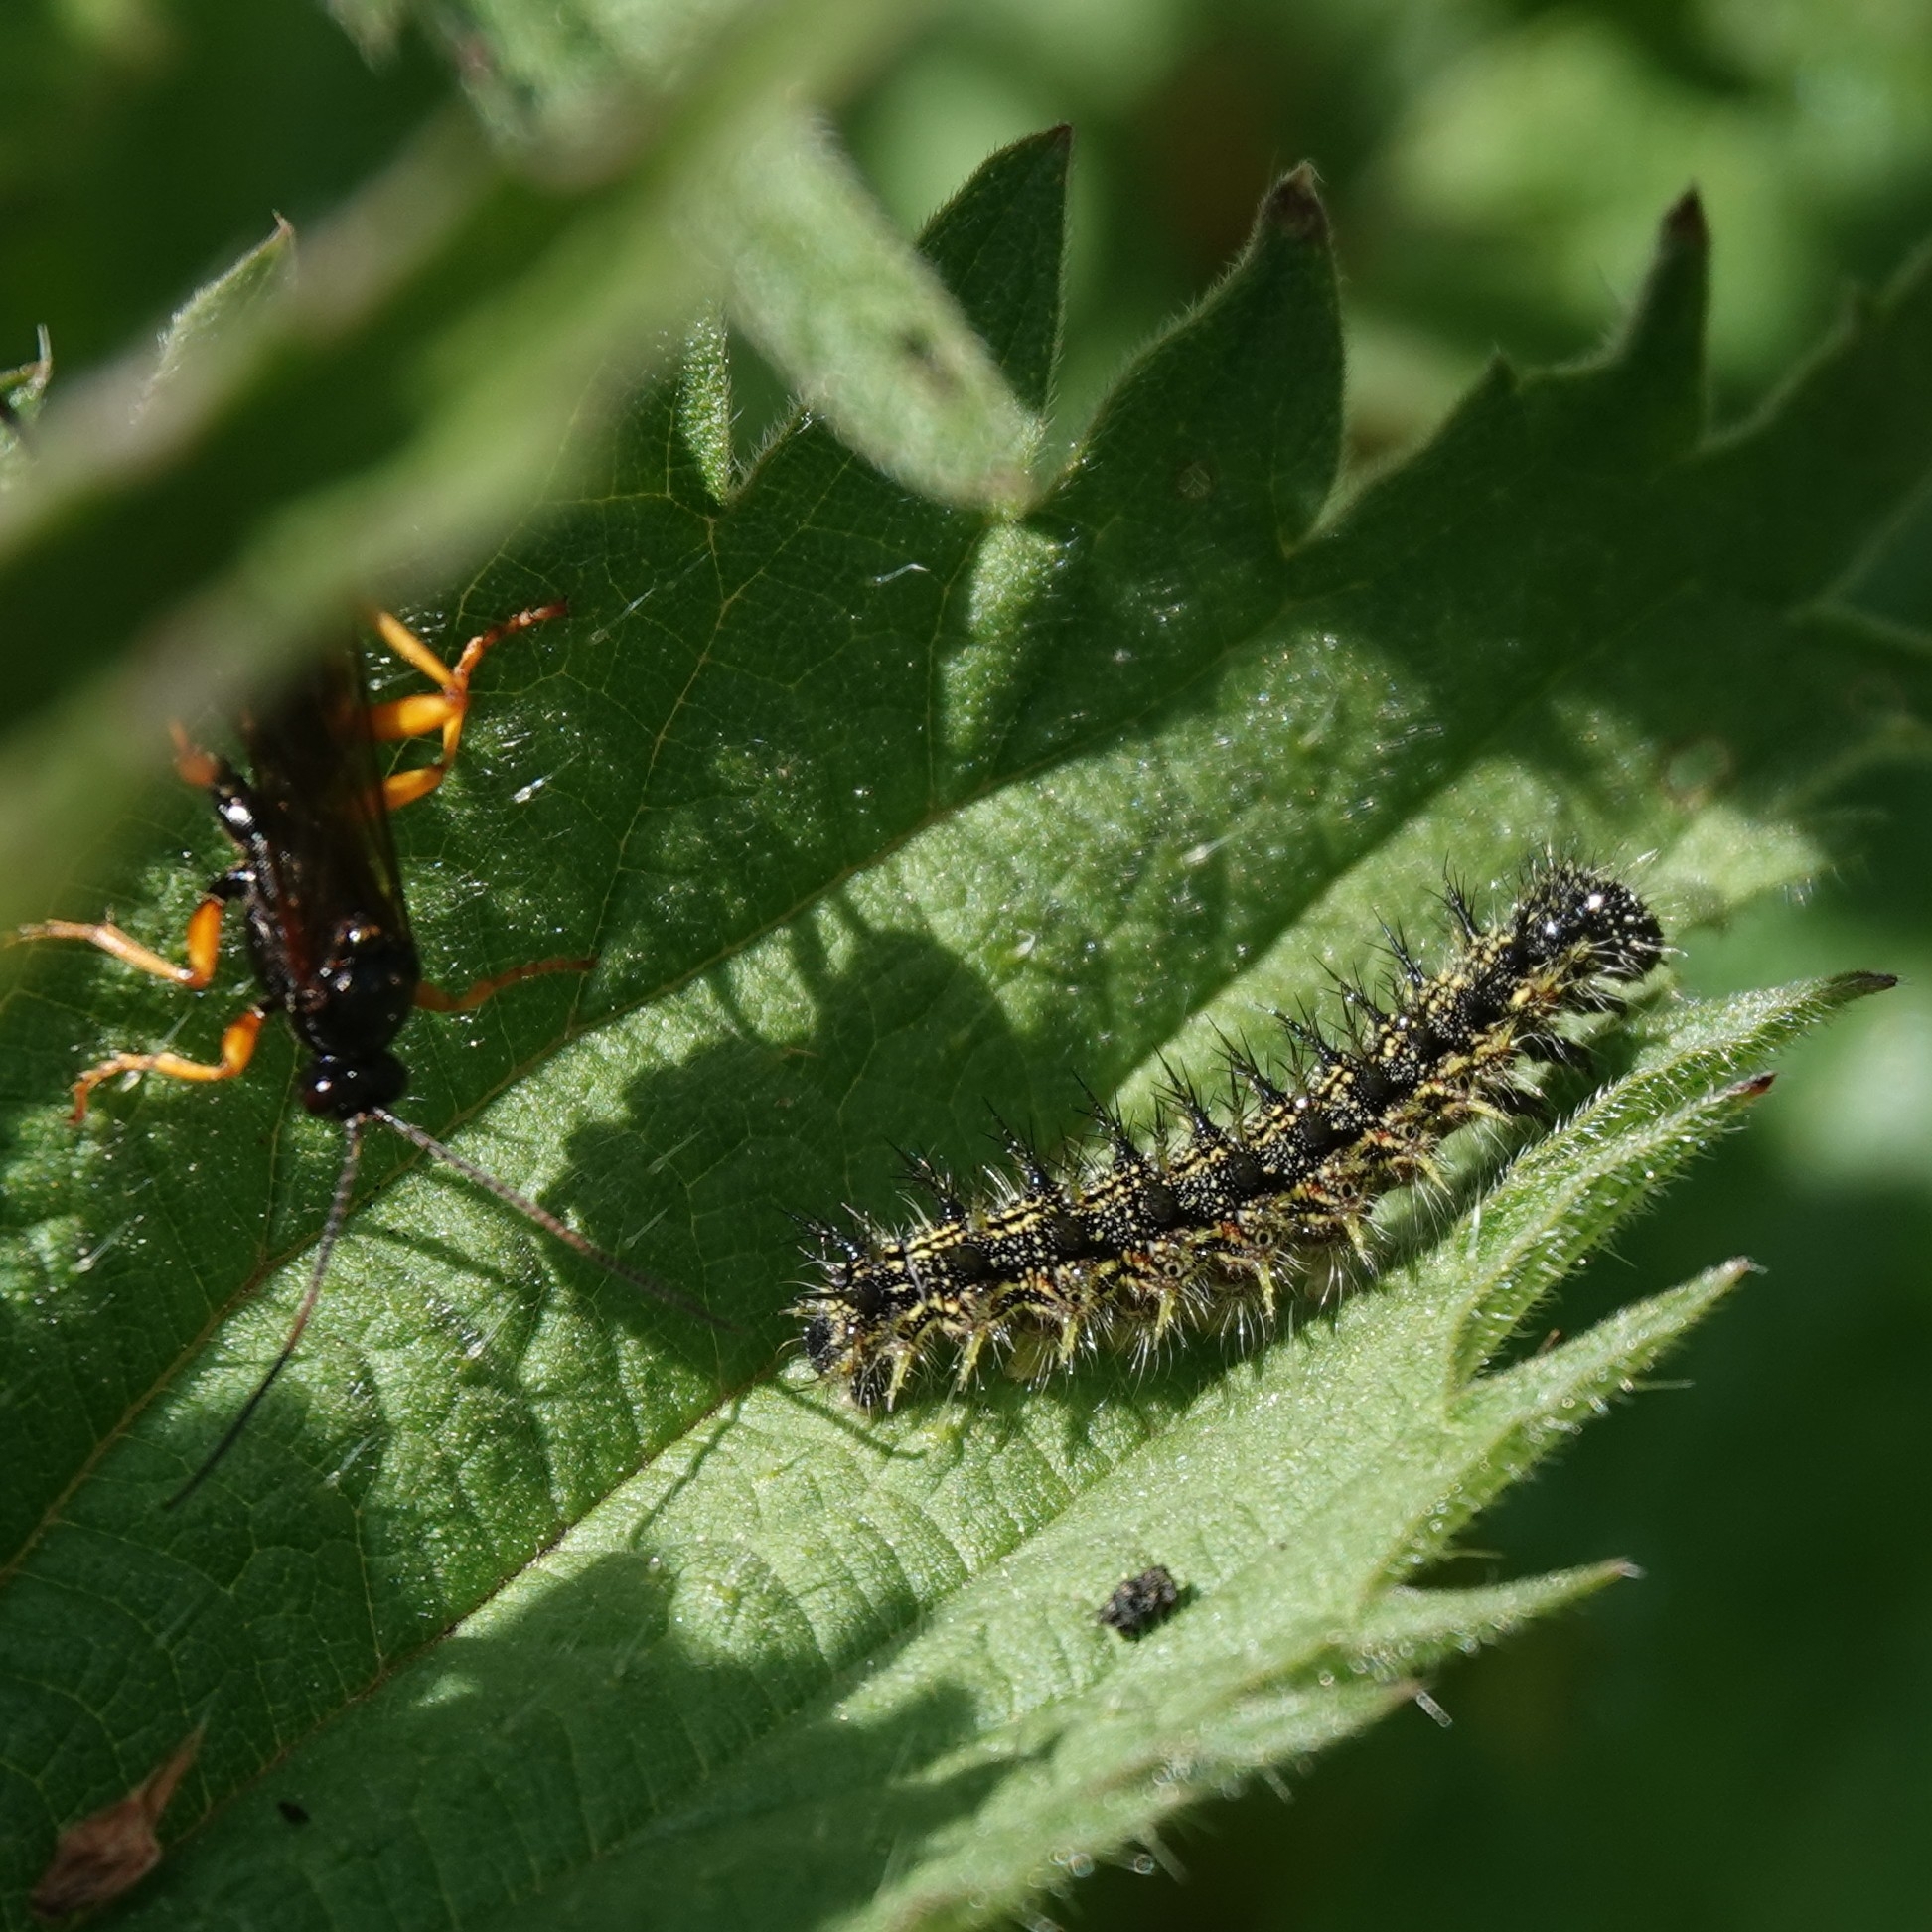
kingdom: Animalia
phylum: Arthropoda
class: Insecta
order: Lepidoptera
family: Nymphalidae
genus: Aglais
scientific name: Aglais urticae
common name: Small tortoiseshell
